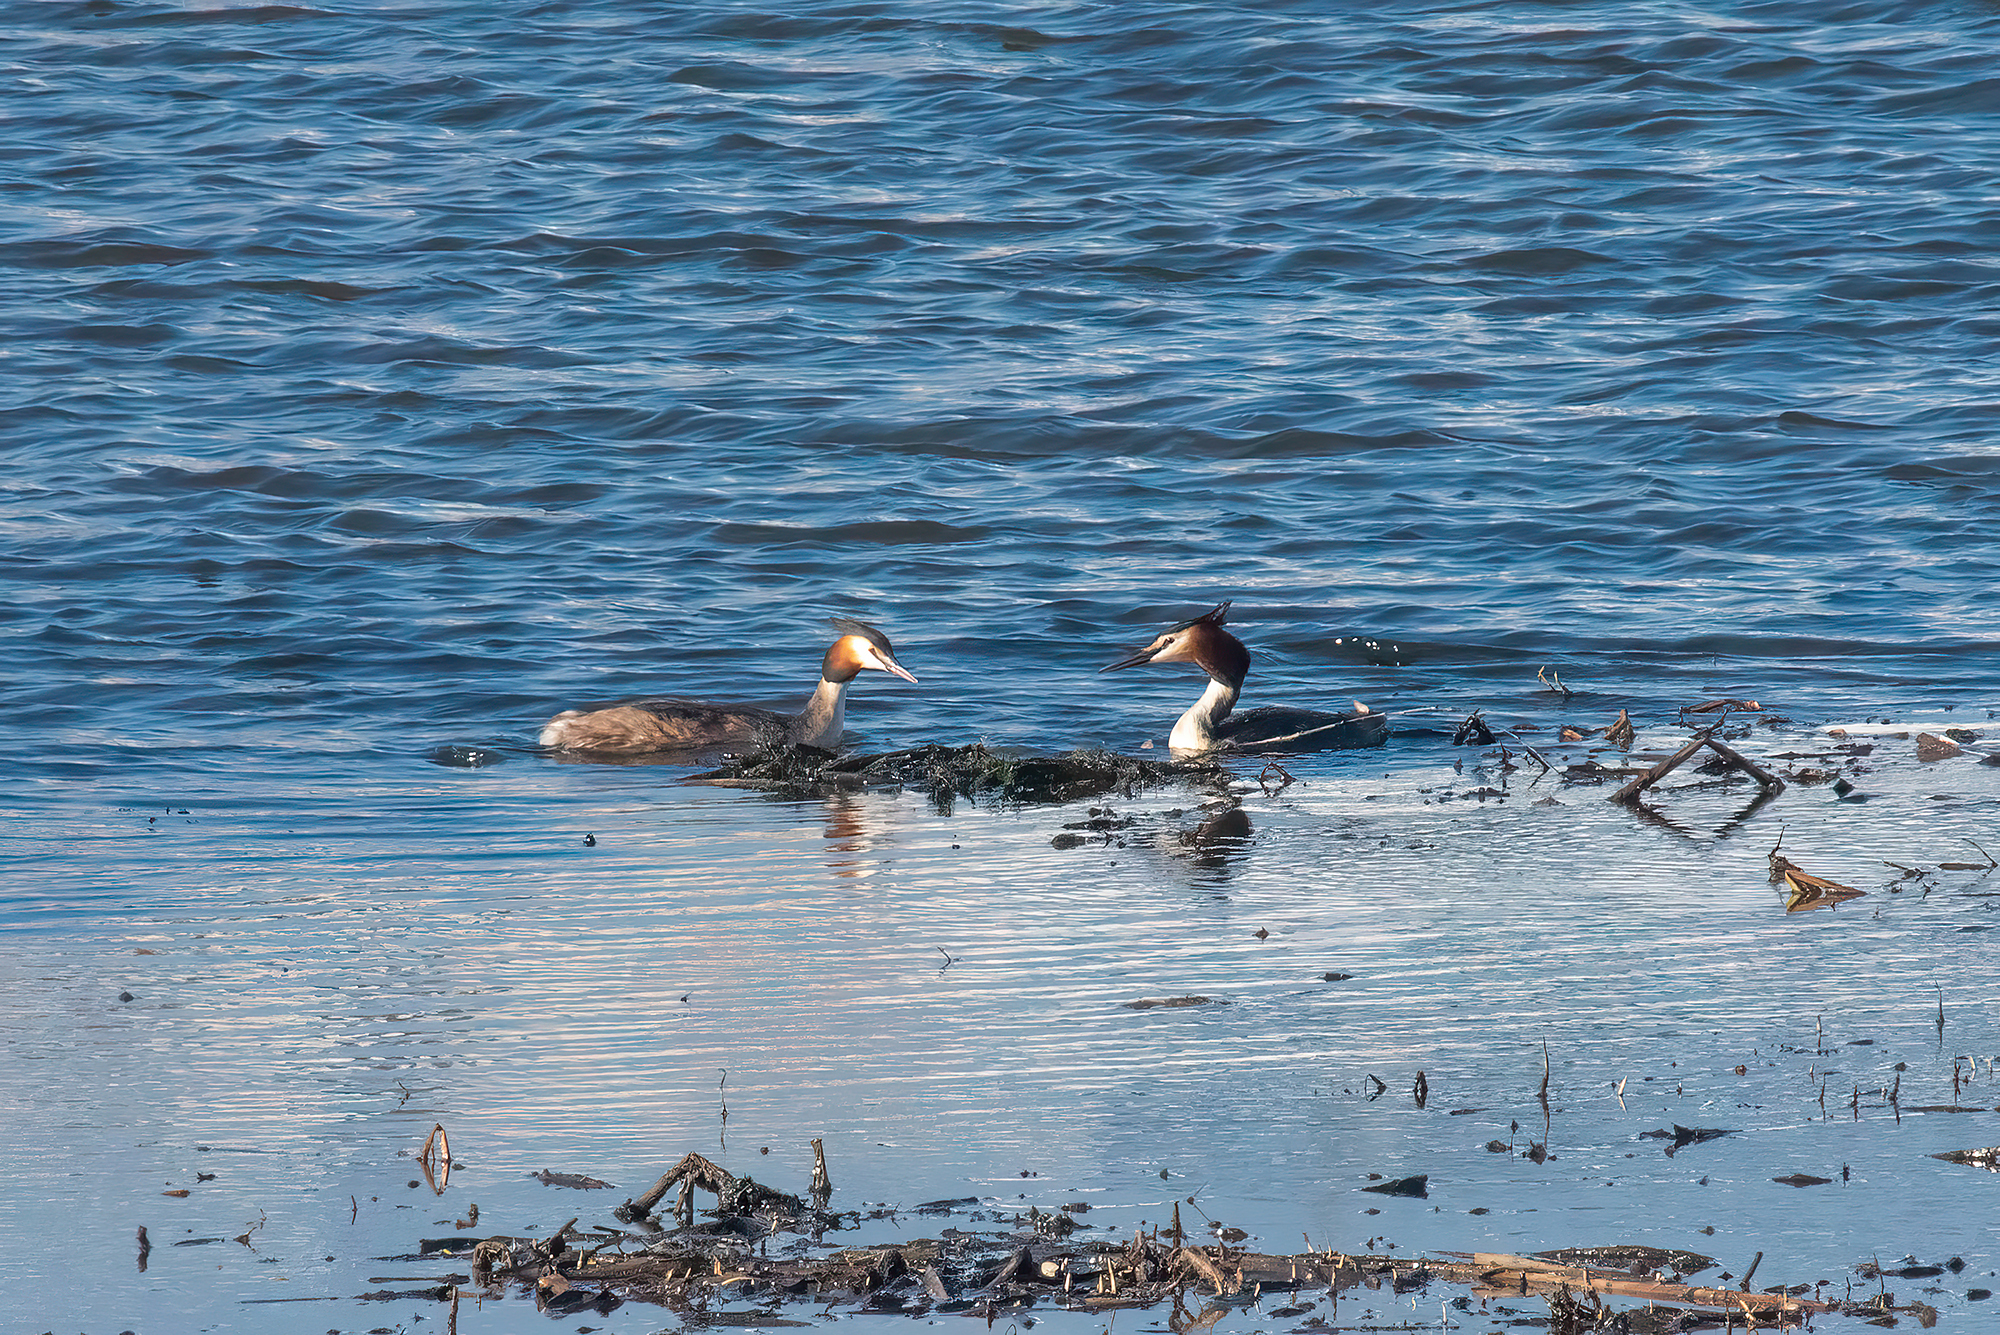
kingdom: Animalia
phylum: Chordata
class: Aves
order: Podicipediformes
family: Podicipedidae
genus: Podiceps
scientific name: Podiceps cristatus
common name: Great crested grebe
